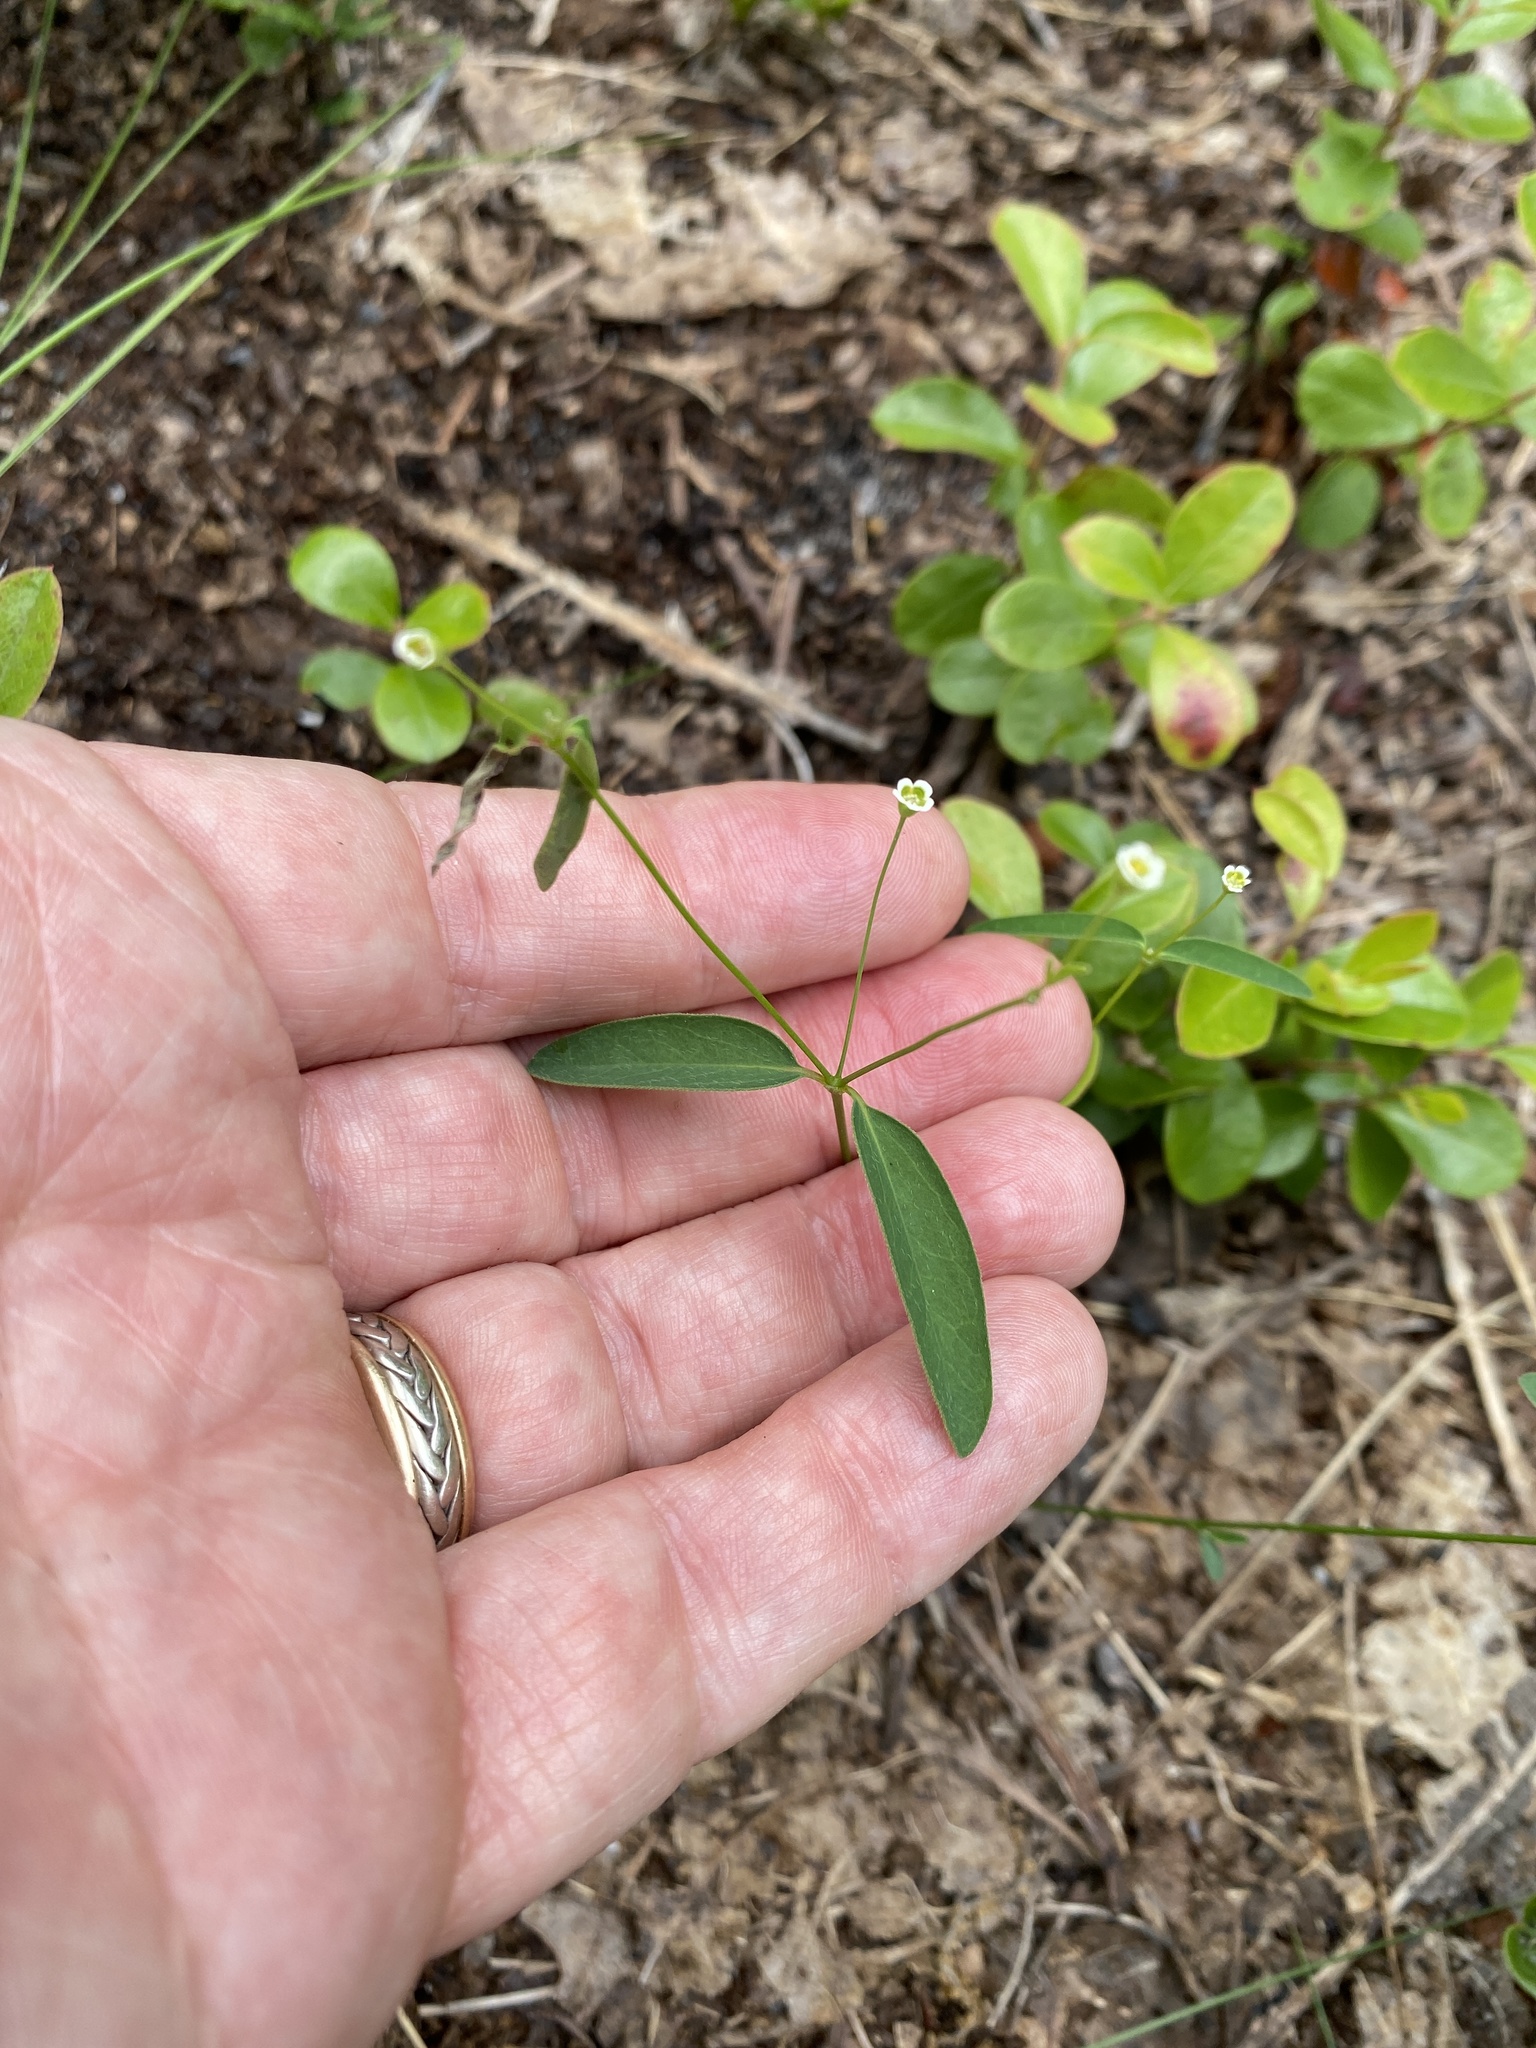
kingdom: Plantae
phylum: Tracheophyta
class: Magnoliopsida
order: Malpighiales
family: Euphorbiaceae
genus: Euphorbia
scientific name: Euphorbia curtisii
